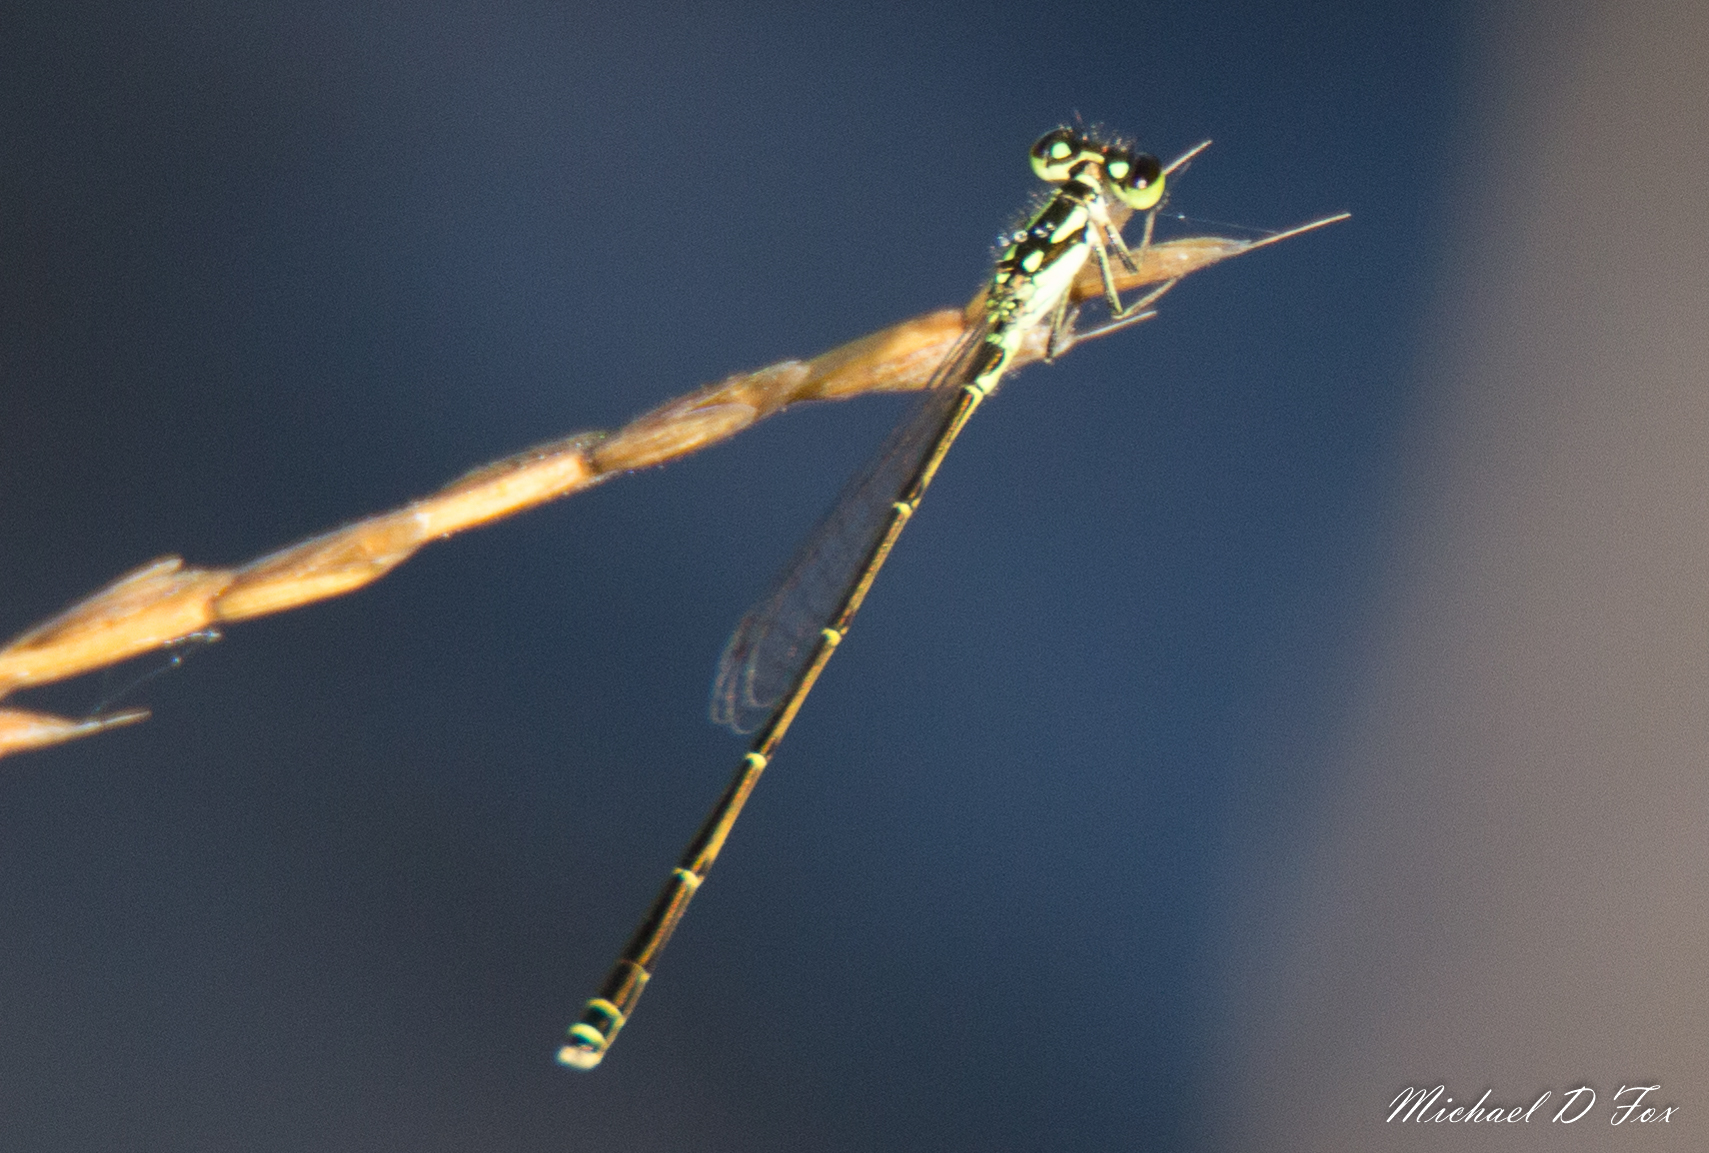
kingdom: Animalia
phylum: Arthropoda
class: Insecta
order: Odonata
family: Coenagrionidae
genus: Ischnura
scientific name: Ischnura posita
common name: Fragile forktail
